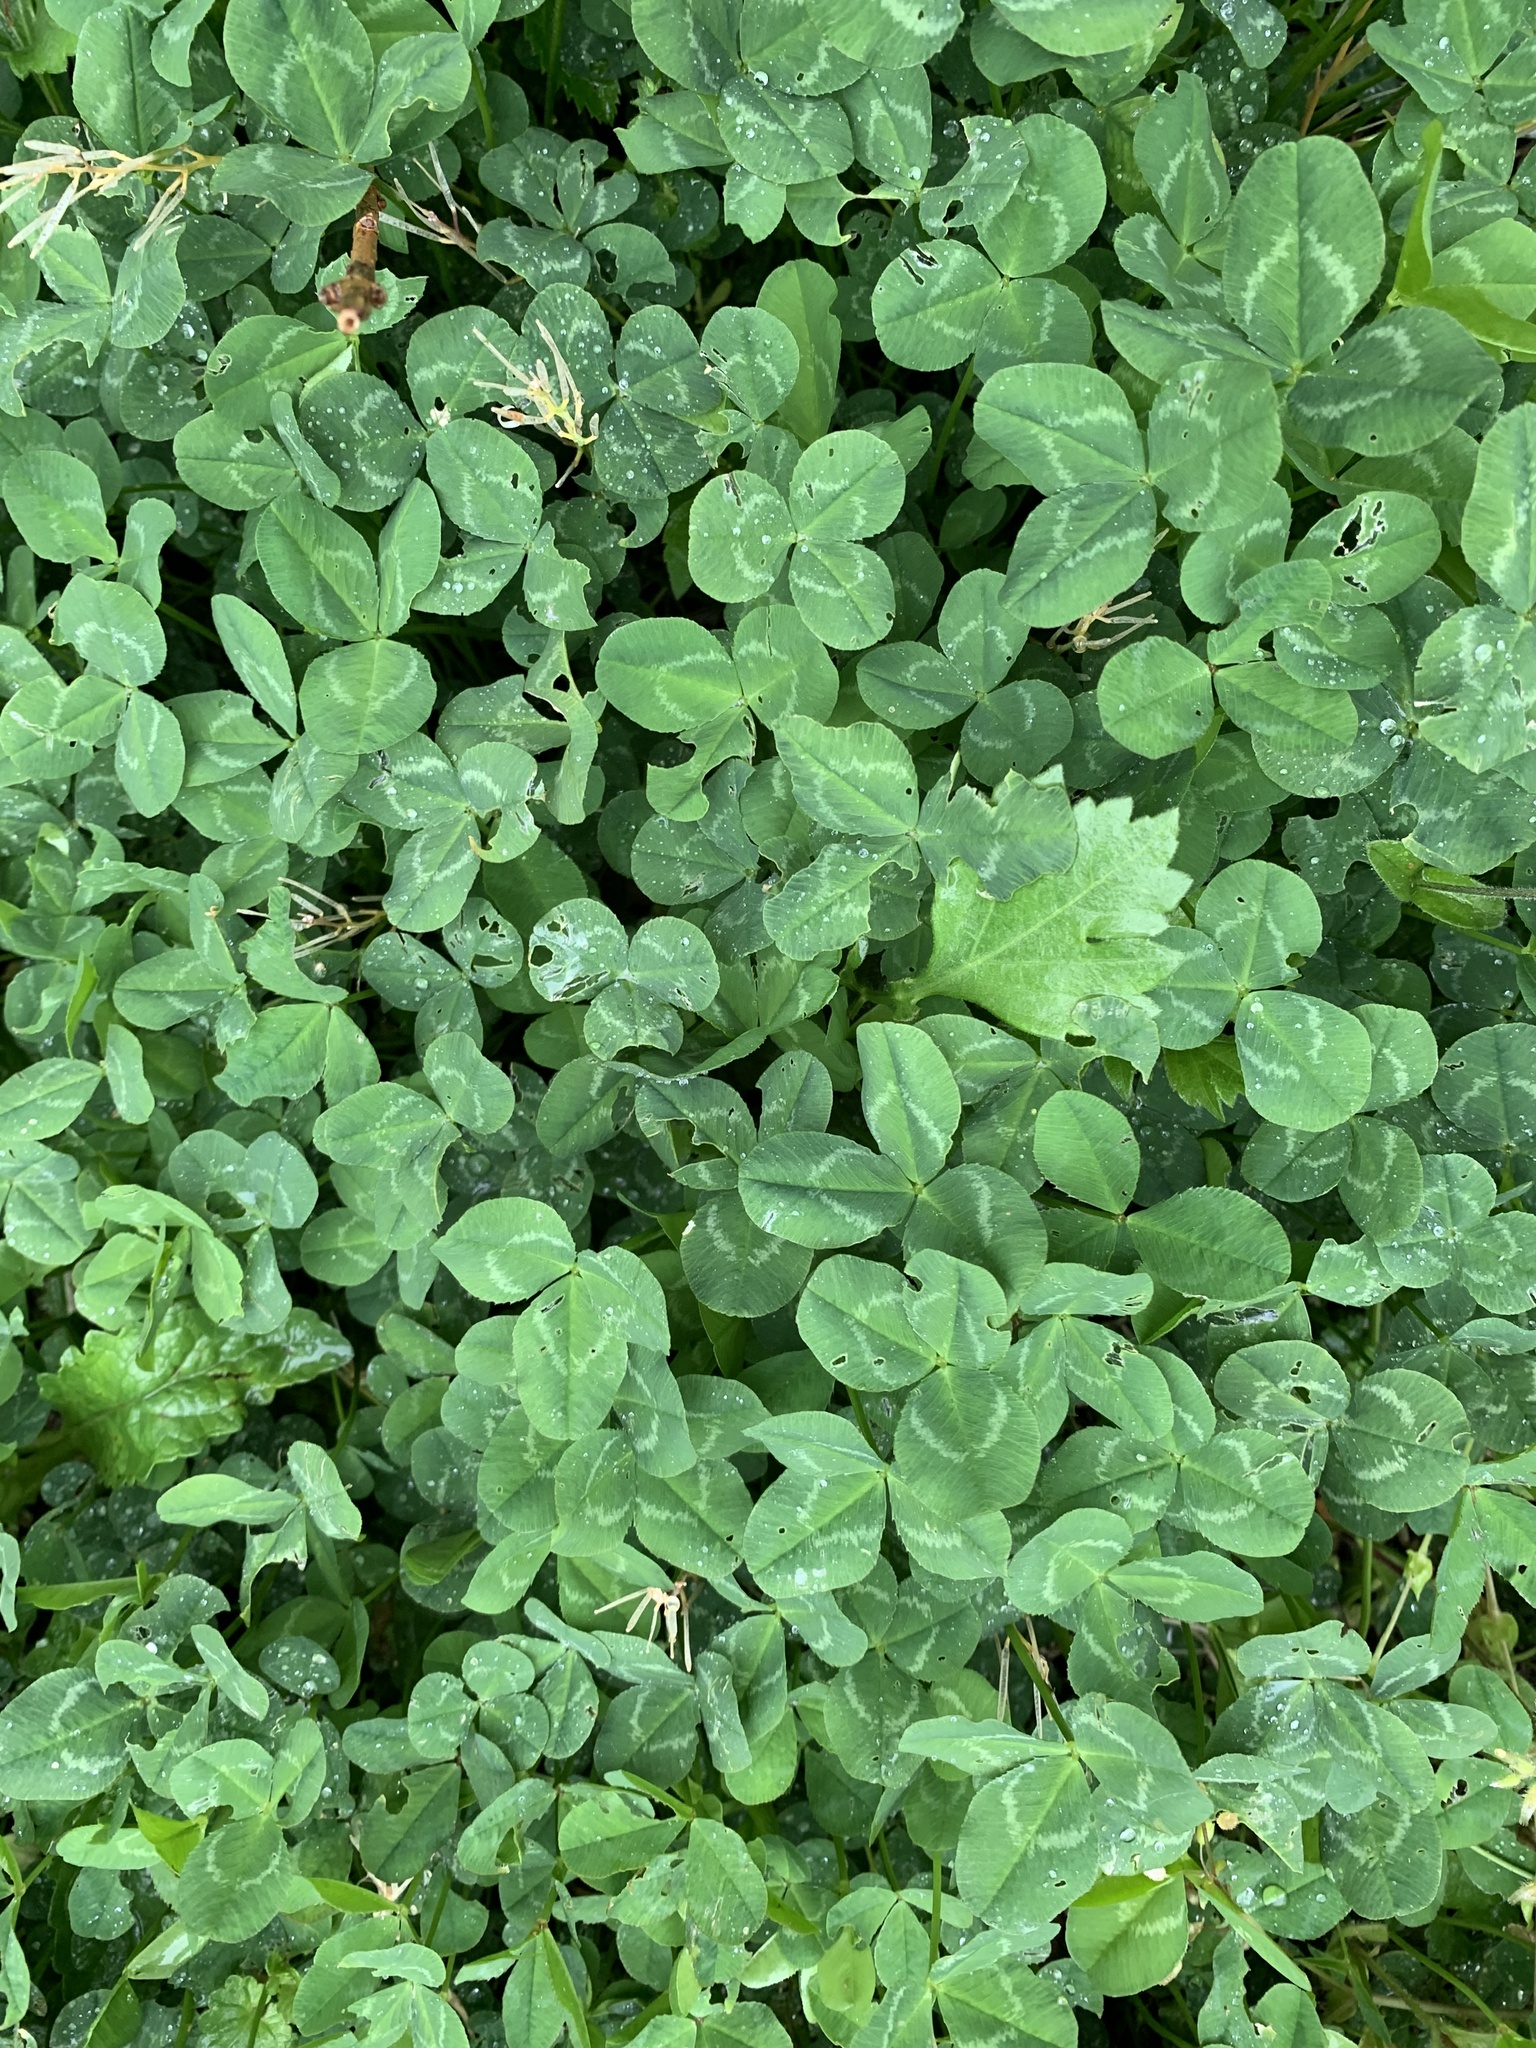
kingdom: Plantae
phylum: Tracheophyta
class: Magnoliopsida
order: Fabales
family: Fabaceae
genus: Trifolium
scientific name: Trifolium repens
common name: White clover
